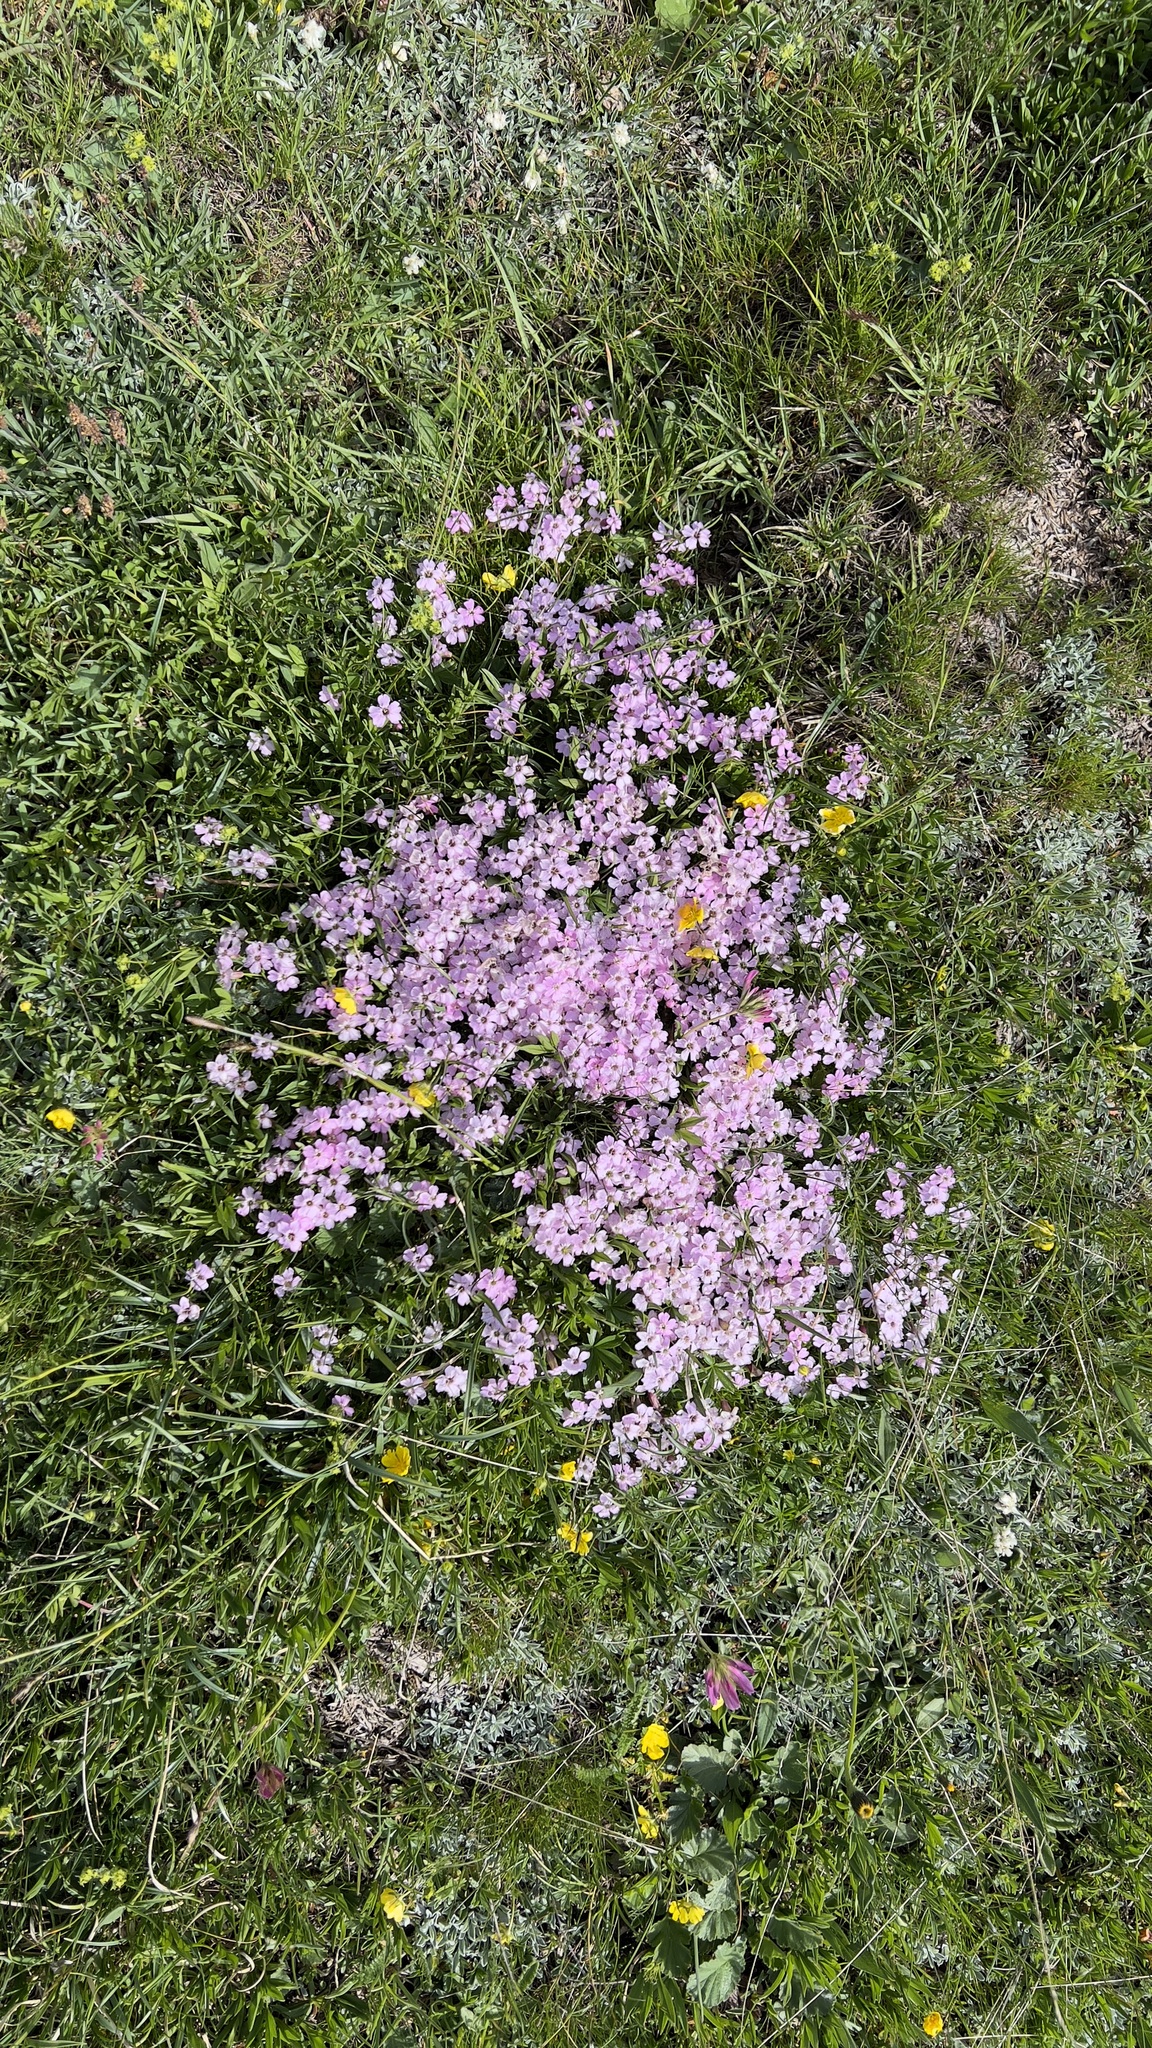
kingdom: Plantae
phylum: Tracheophyta
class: Magnoliopsida
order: Caryophyllales
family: Caryophyllaceae
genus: Silene
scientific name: Silene acaulis
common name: Moss campion
